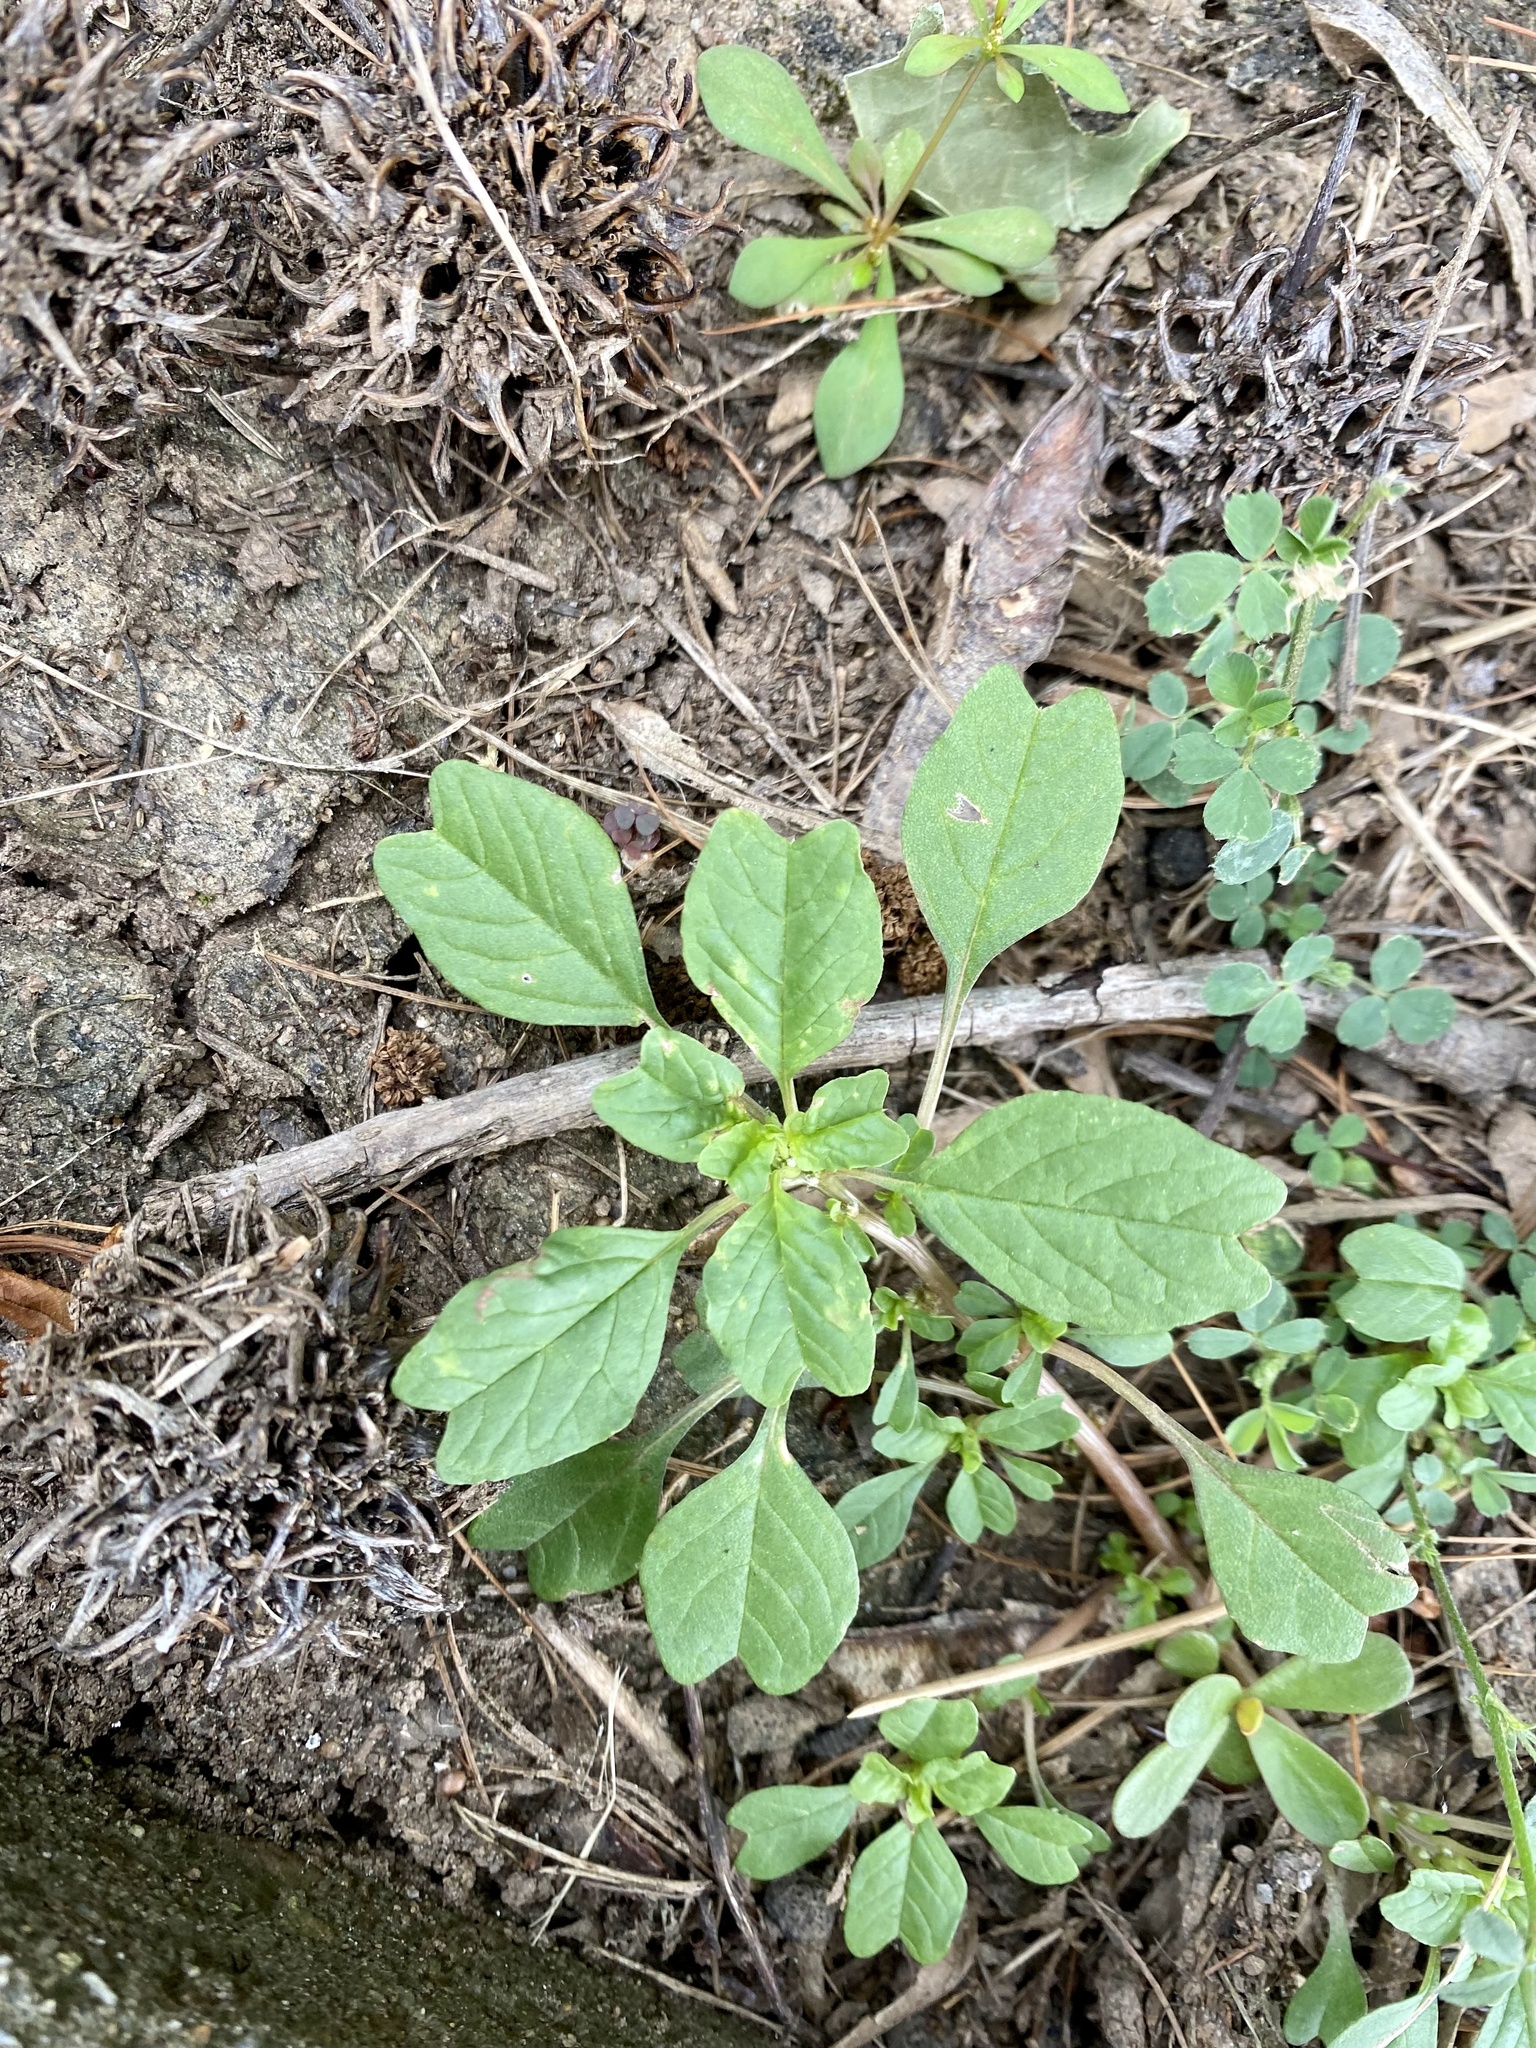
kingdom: Plantae
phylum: Tracheophyta
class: Magnoliopsida
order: Caryophyllales
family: Amaranthaceae
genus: Amaranthus
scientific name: Amaranthus blitum
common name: Purple amaranth
